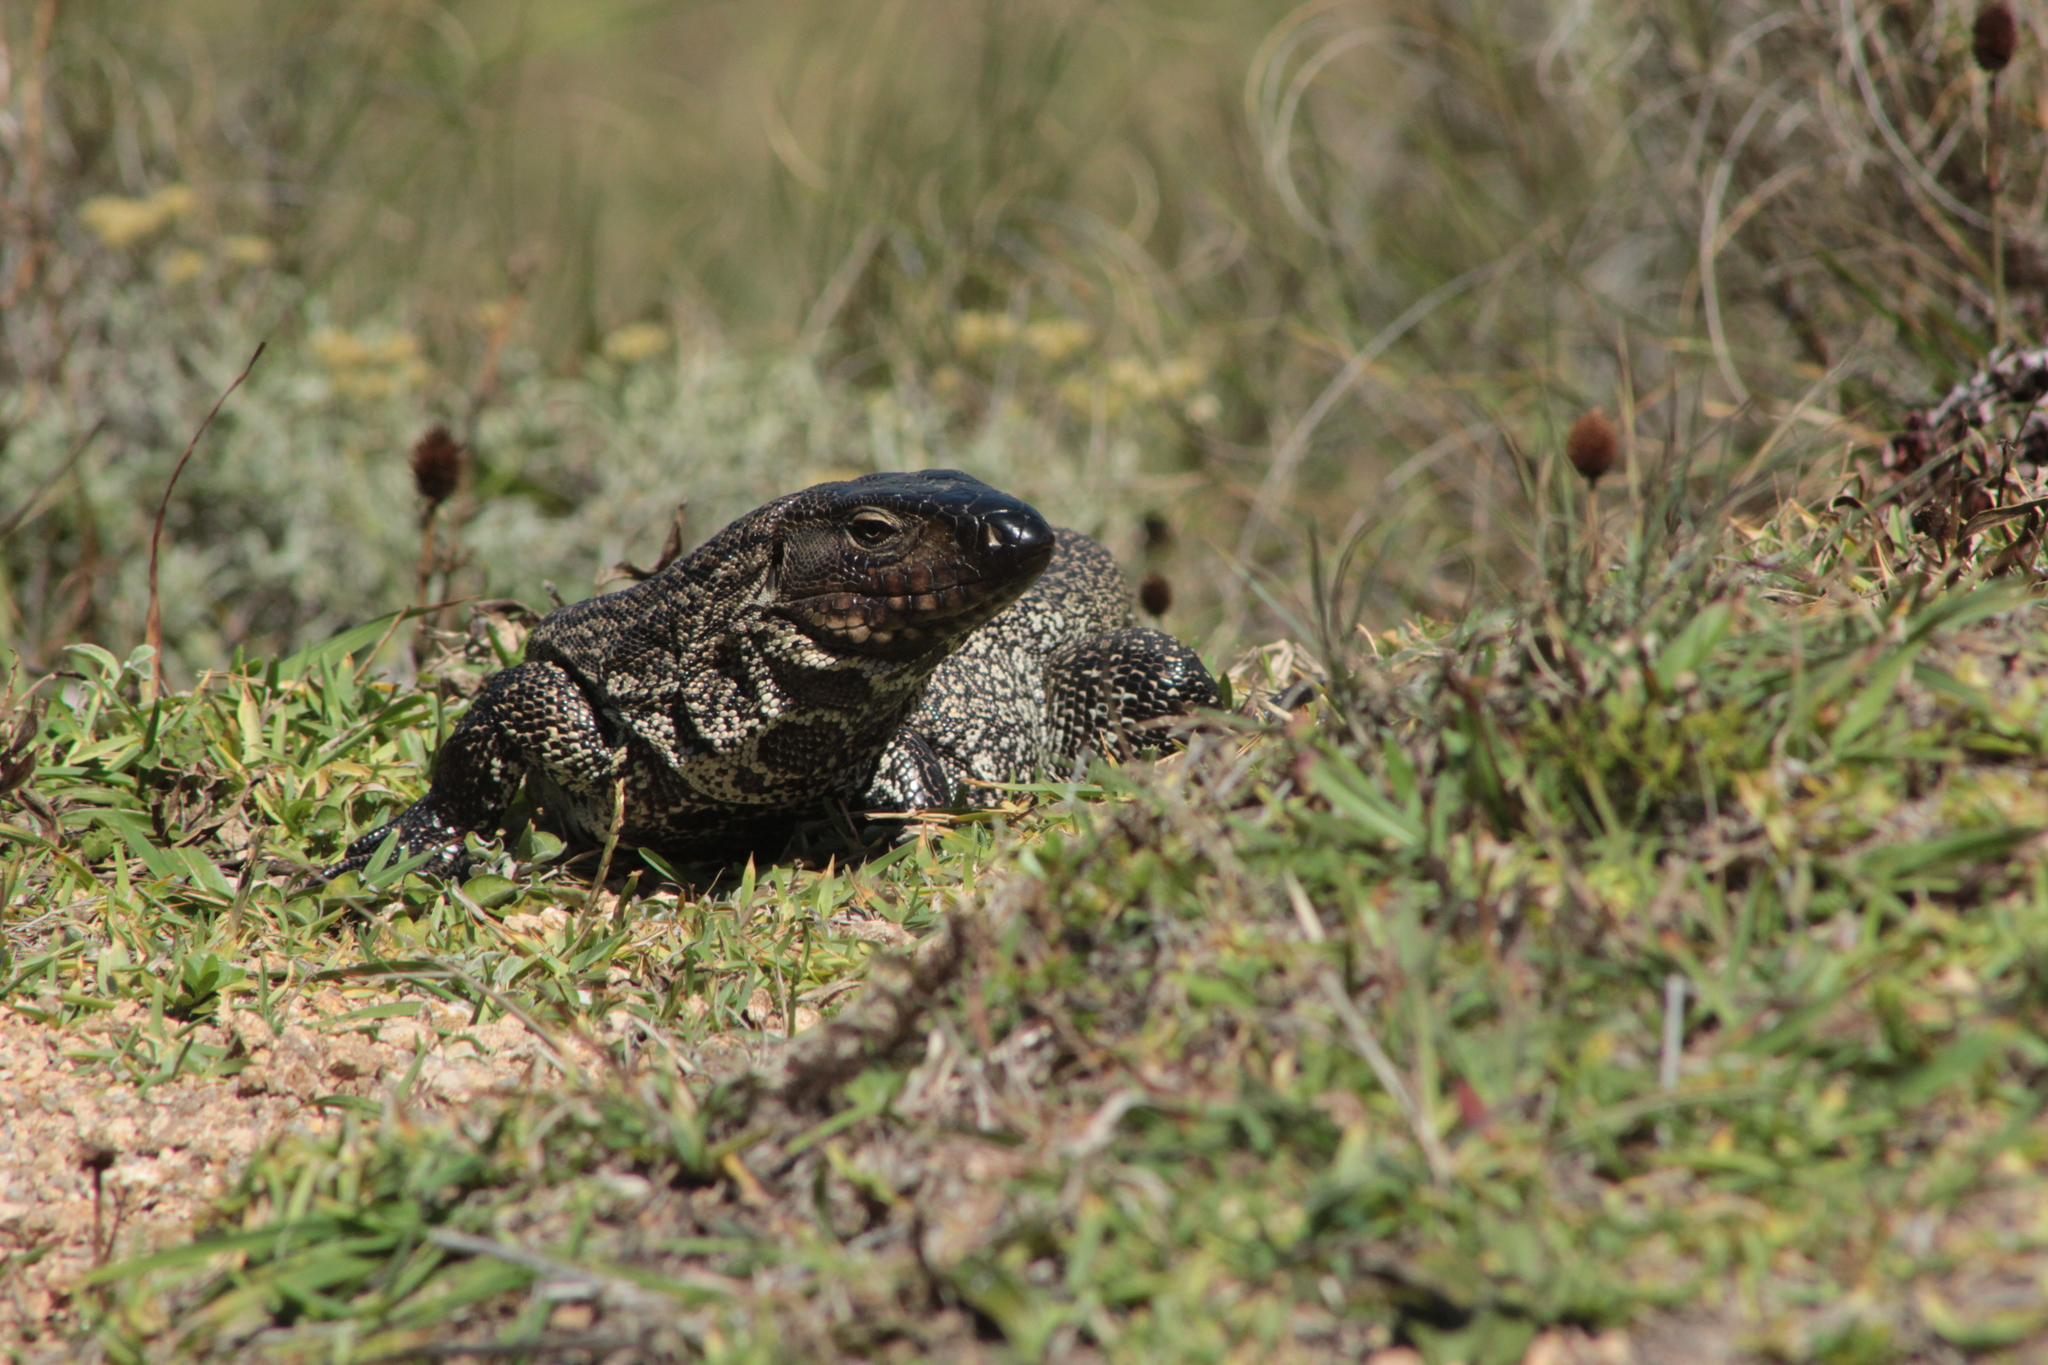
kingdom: Animalia
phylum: Chordata
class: Squamata
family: Teiidae
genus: Salvator
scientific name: Salvator merianae
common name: Argentine black and white tegu
